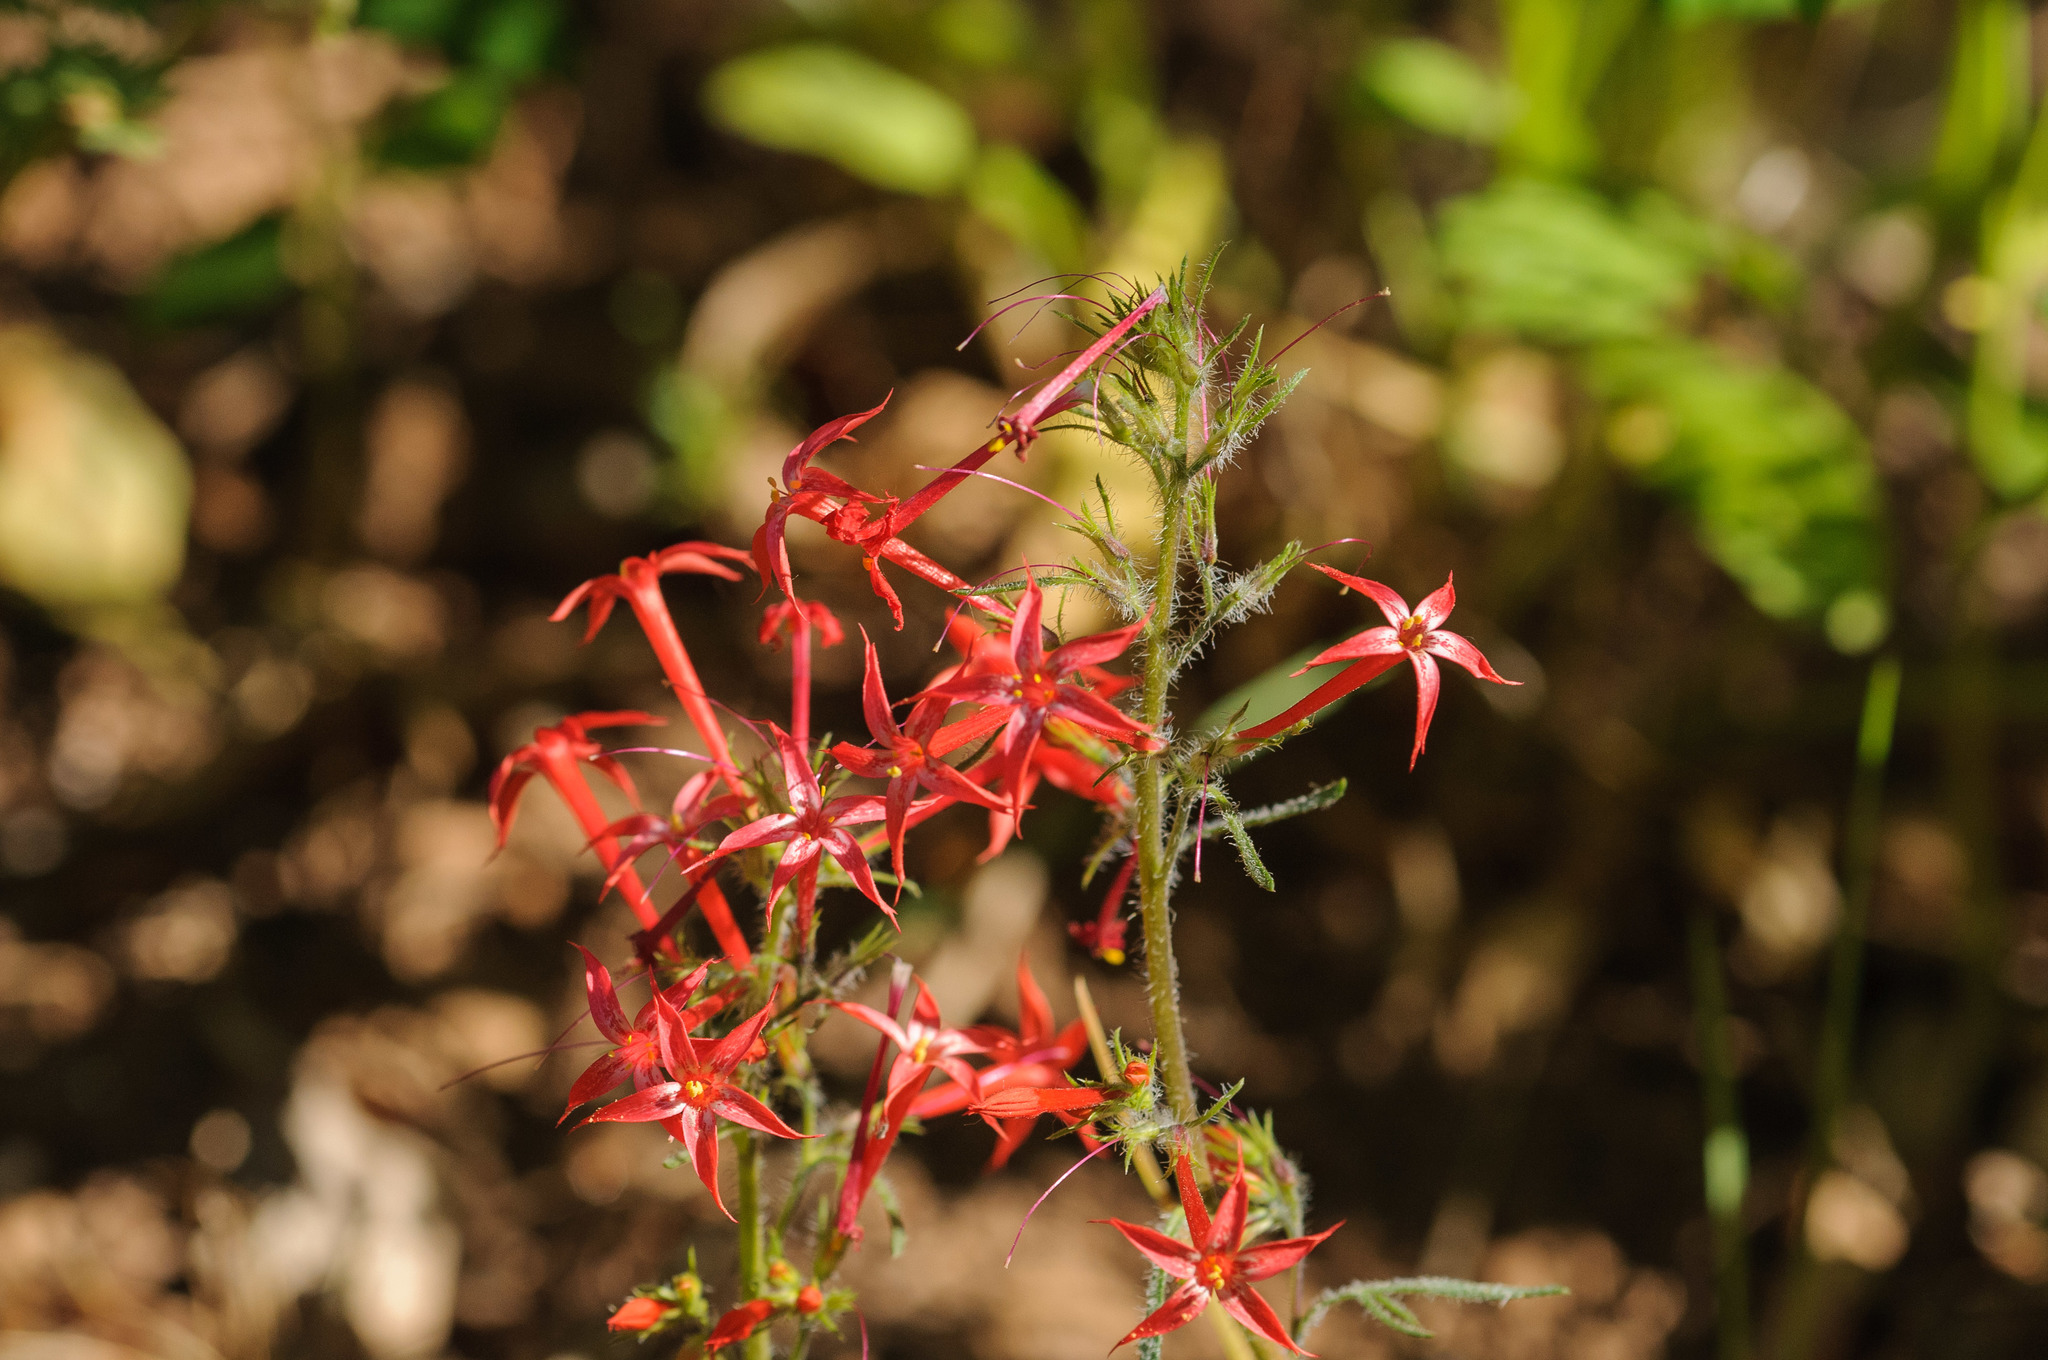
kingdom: Plantae
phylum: Tracheophyta
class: Magnoliopsida
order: Ericales
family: Polemoniaceae
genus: Ipomopsis
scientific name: Ipomopsis aggregata
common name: Scarlet gilia
